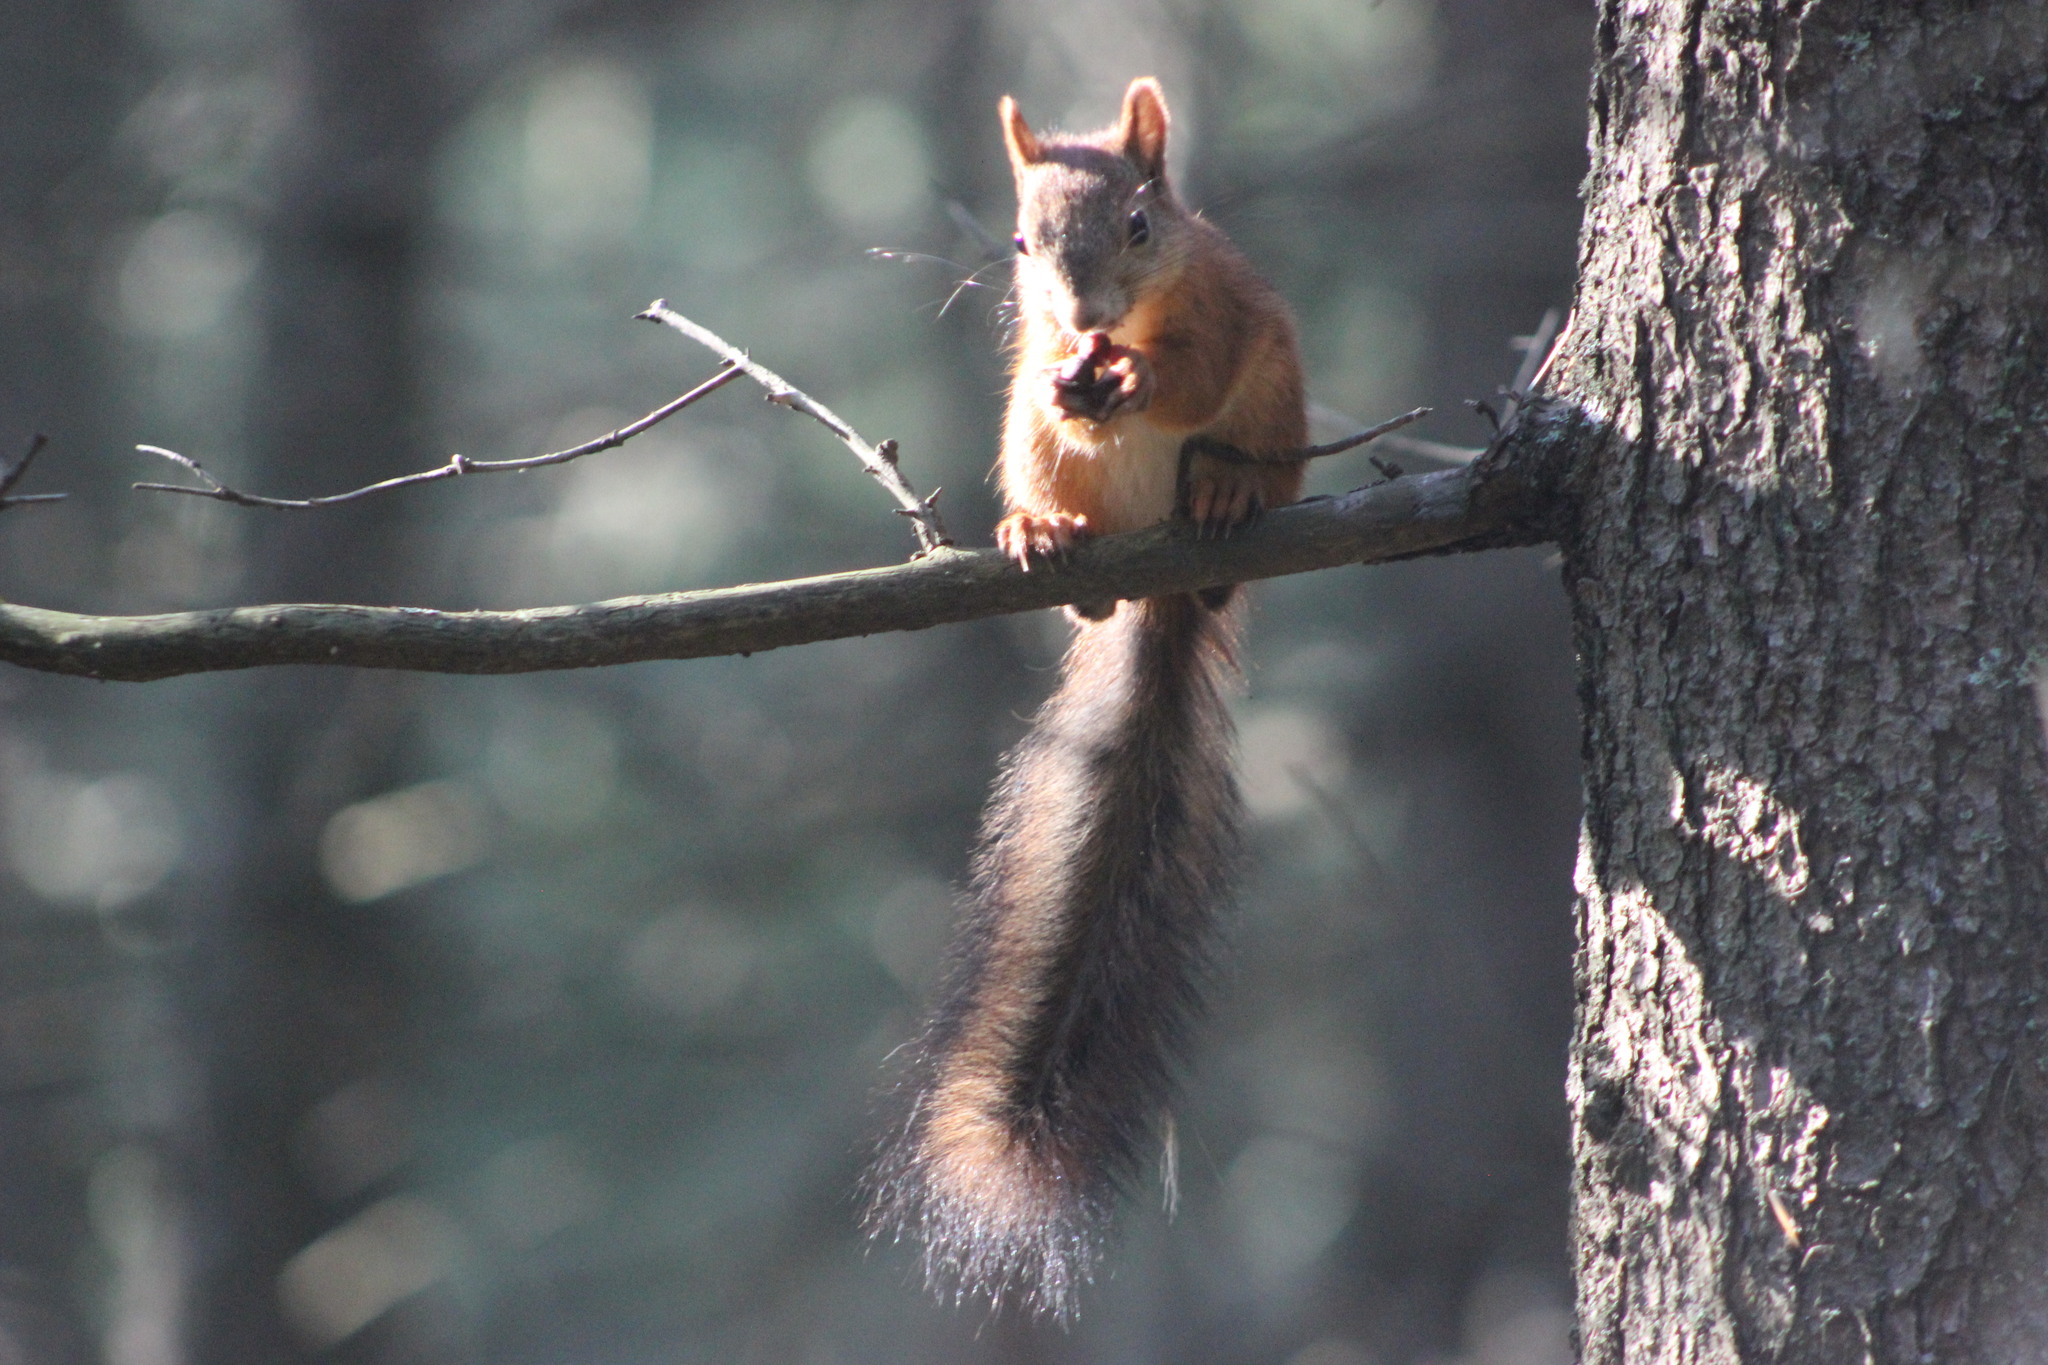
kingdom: Animalia
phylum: Chordata
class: Mammalia
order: Rodentia
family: Sciuridae
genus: Sciurus
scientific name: Sciurus vulgaris
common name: Eurasian red squirrel
